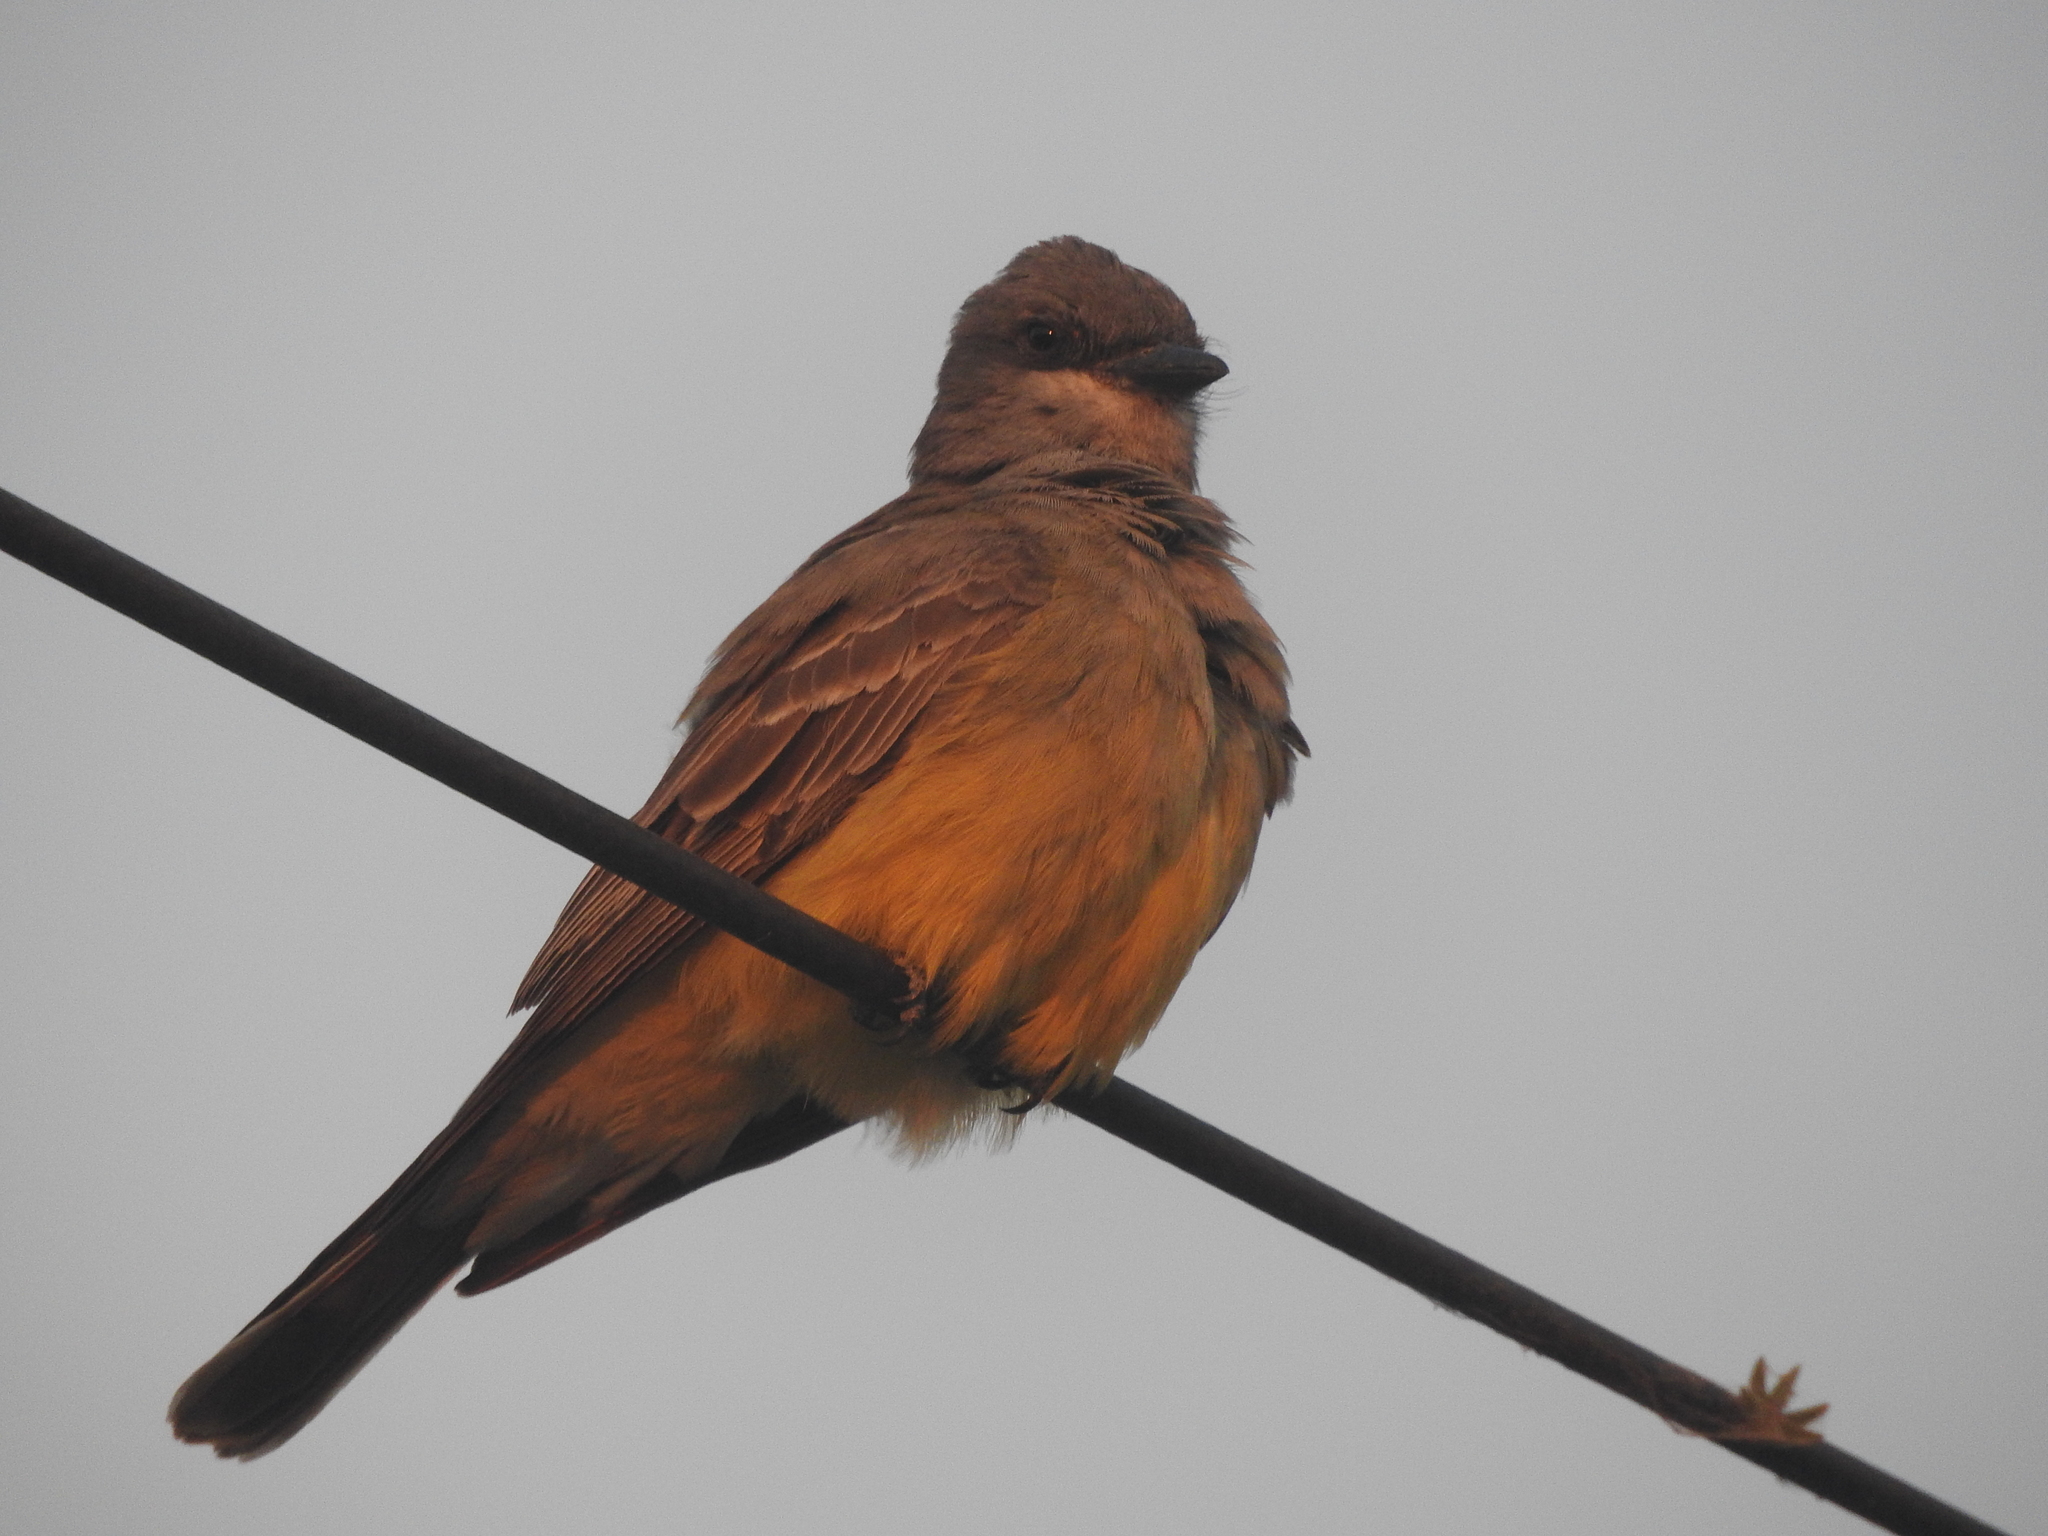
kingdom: Animalia
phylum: Chordata
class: Aves
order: Passeriformes
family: Tyrannidae
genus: Tyrannus
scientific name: Tyrannus vociferans
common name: Cassin's kingbird
